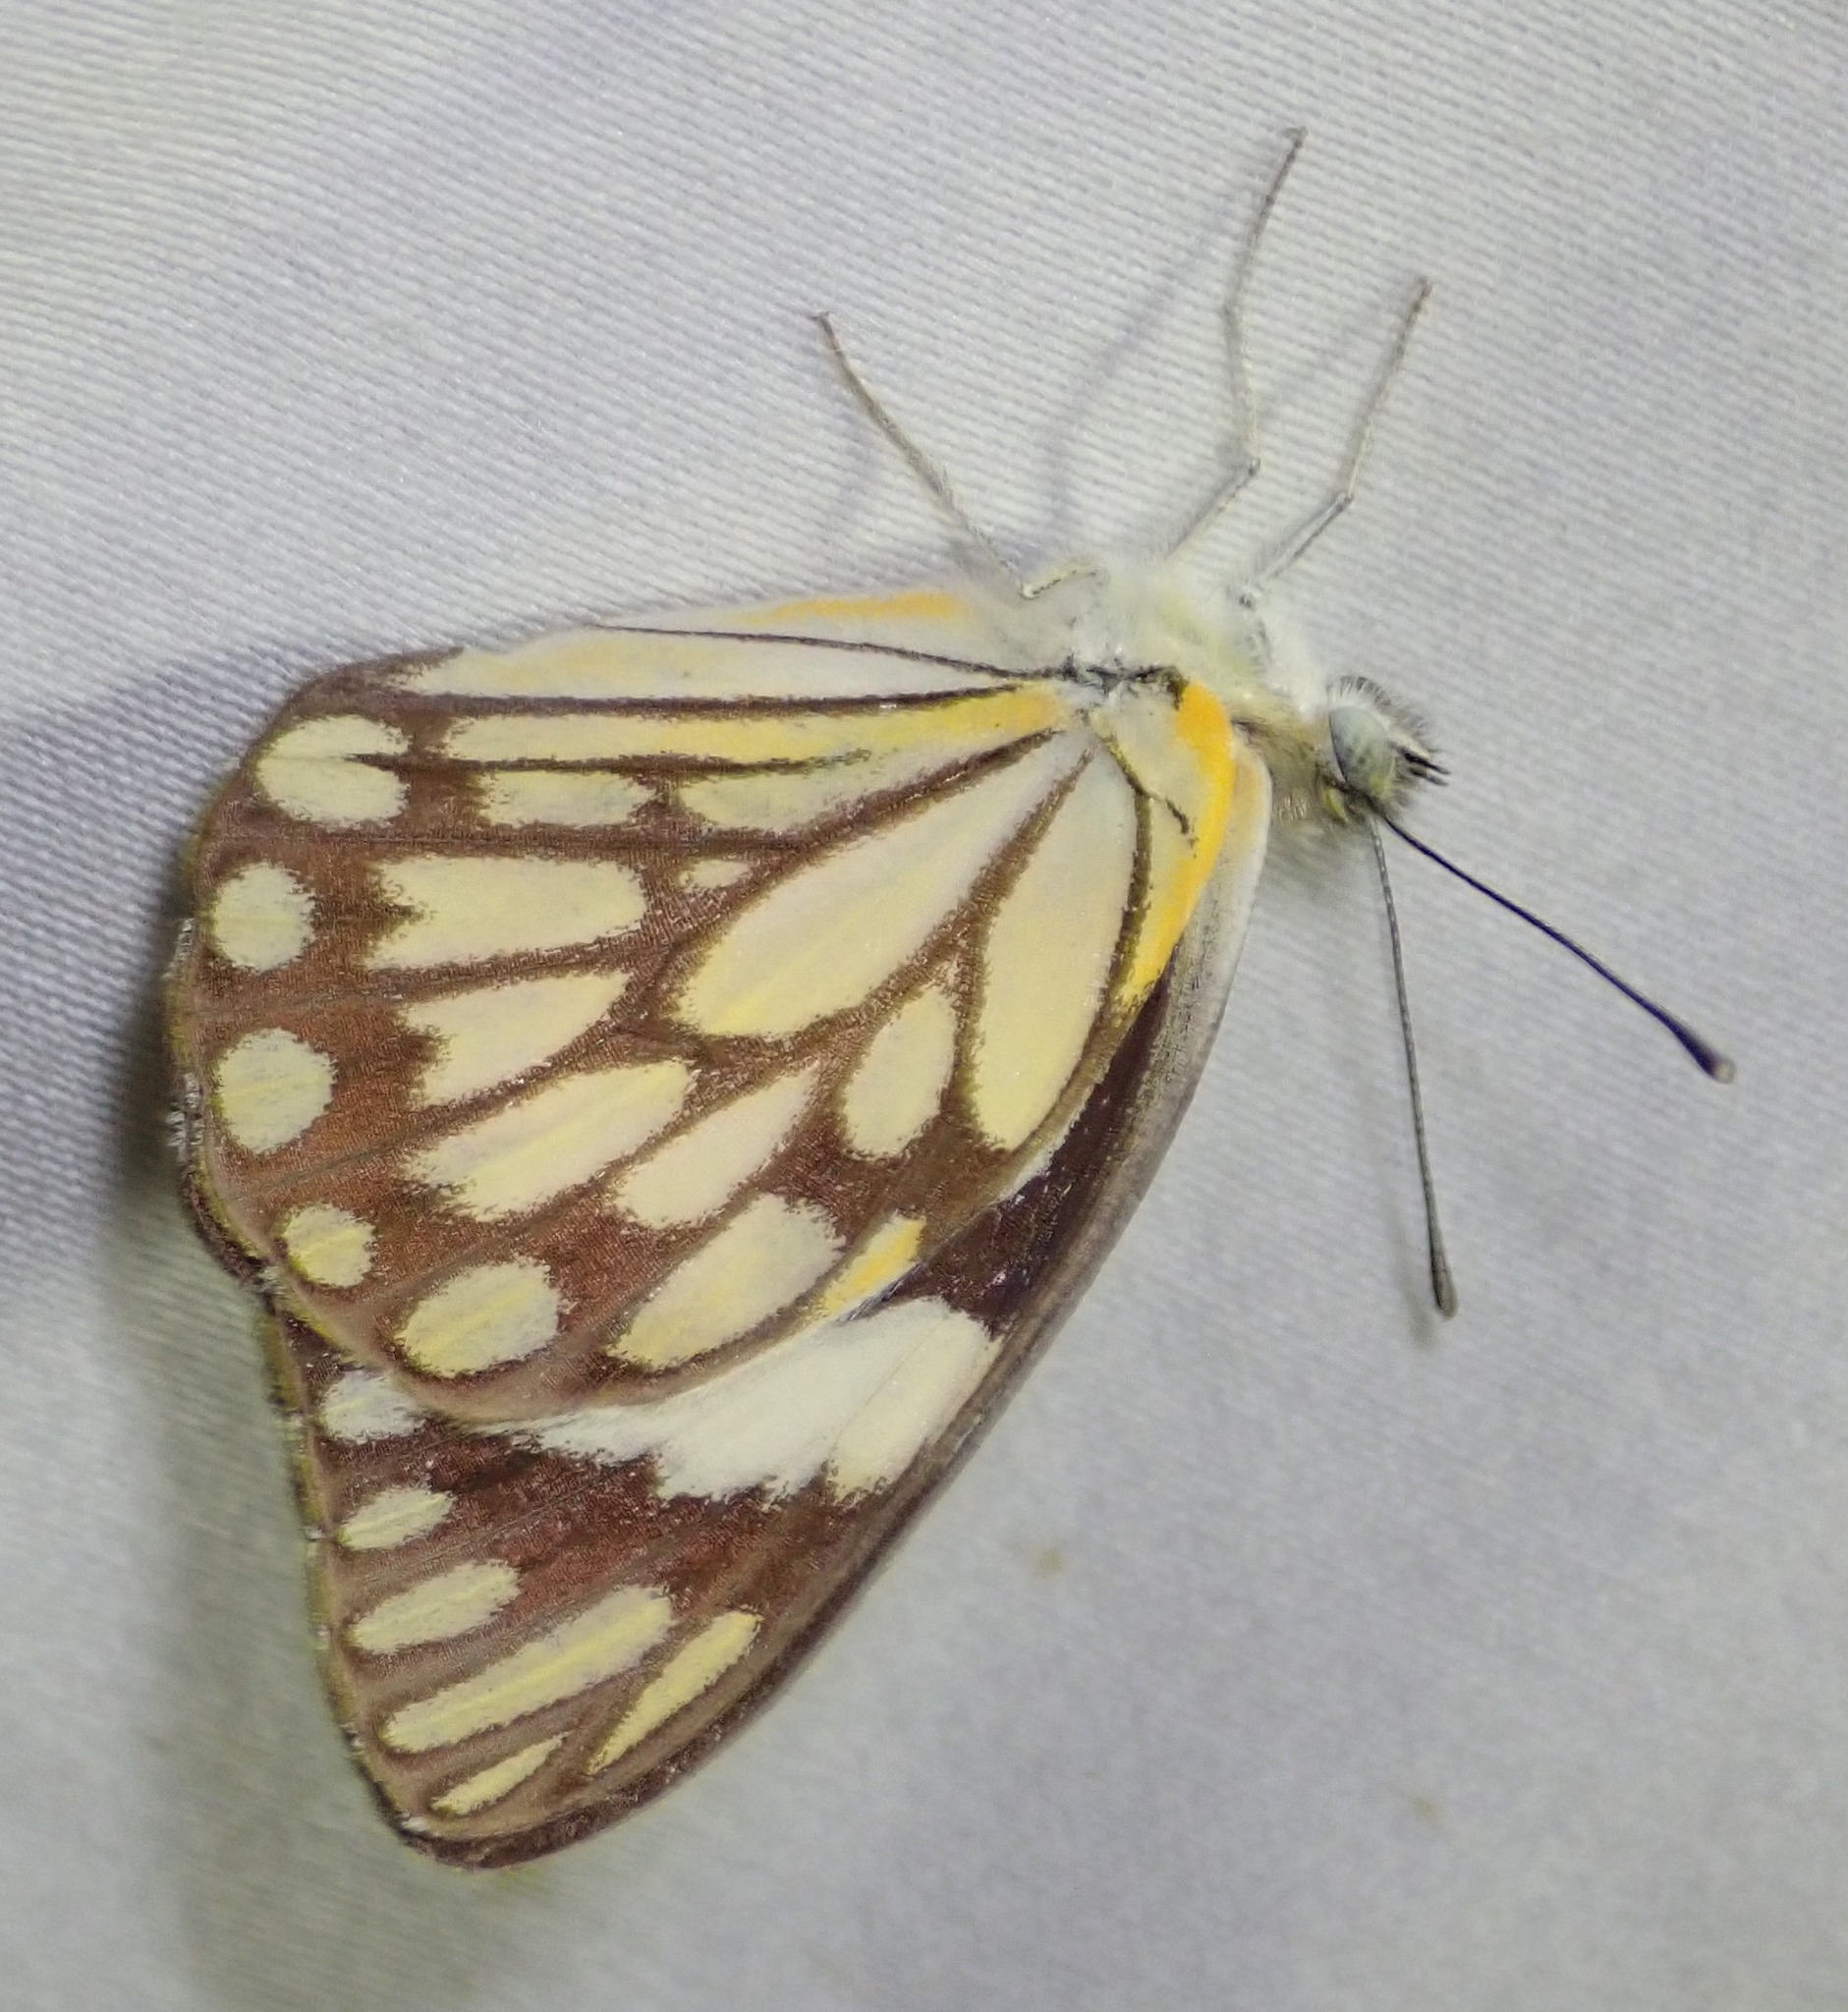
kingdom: Animalia
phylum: Arthropoda
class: Insecta
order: Lepidoptera
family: Pieridae
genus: Belenois
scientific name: Belenois aurota
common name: Brown-veined white
